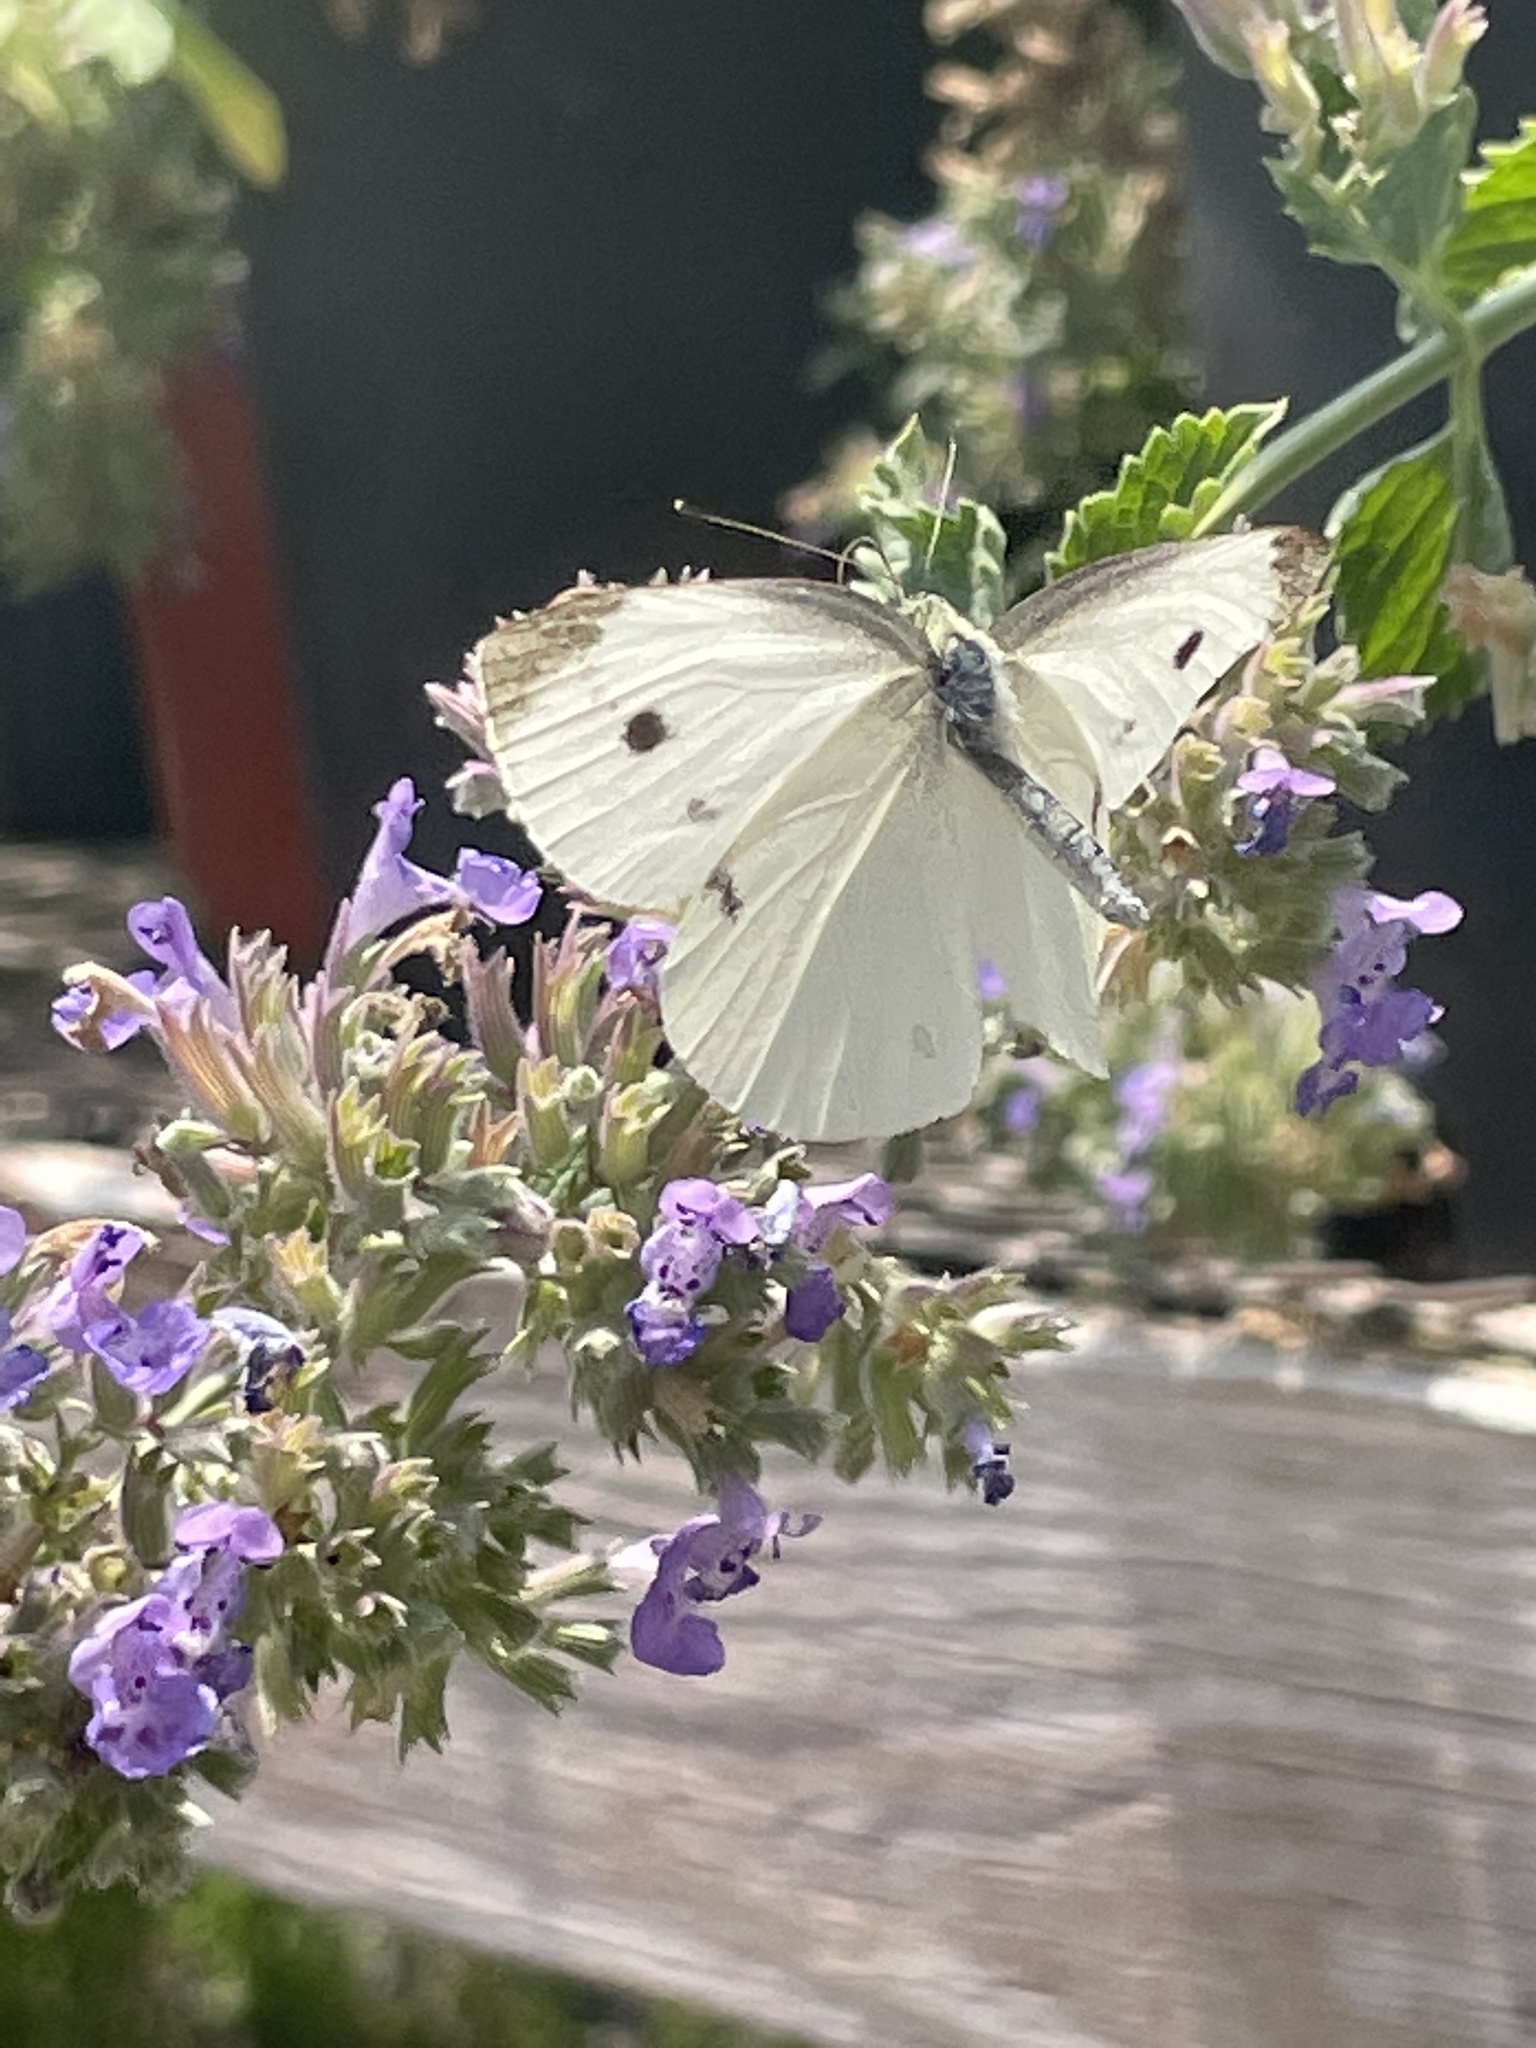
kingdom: Animalia
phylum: Arthropoda
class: Insecta
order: Lepidoptera
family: Pieridae
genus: Pieris
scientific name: Pieris rapae
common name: Small white
